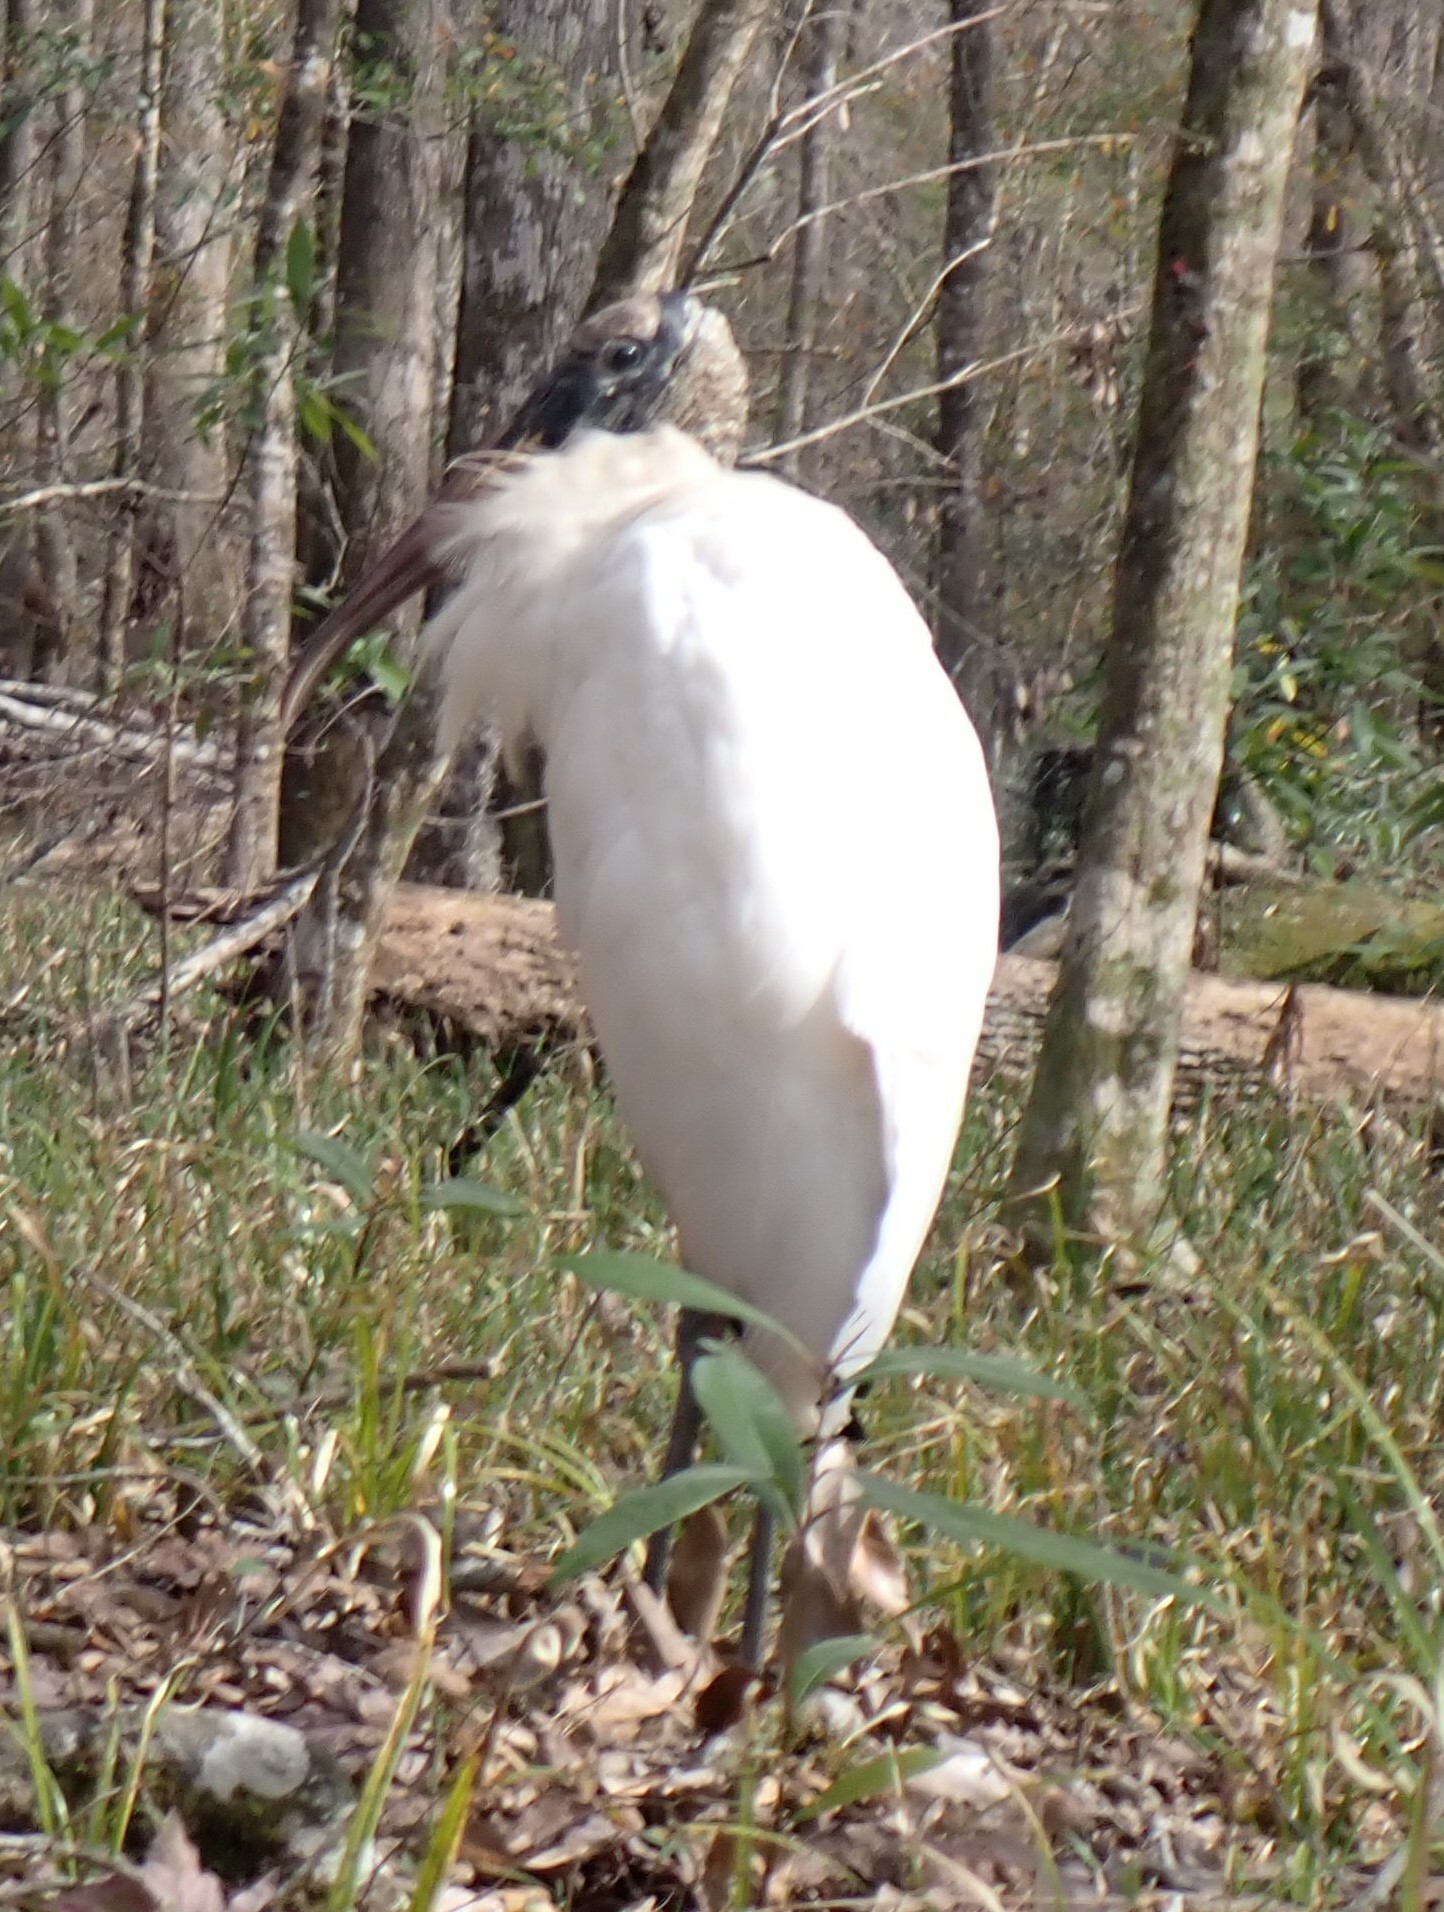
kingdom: Animalia
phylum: Chordata
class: Aves
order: Ciconiiformes
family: Ciconiidae
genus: Mycteria
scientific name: Mycteria americana
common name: Wood stork
